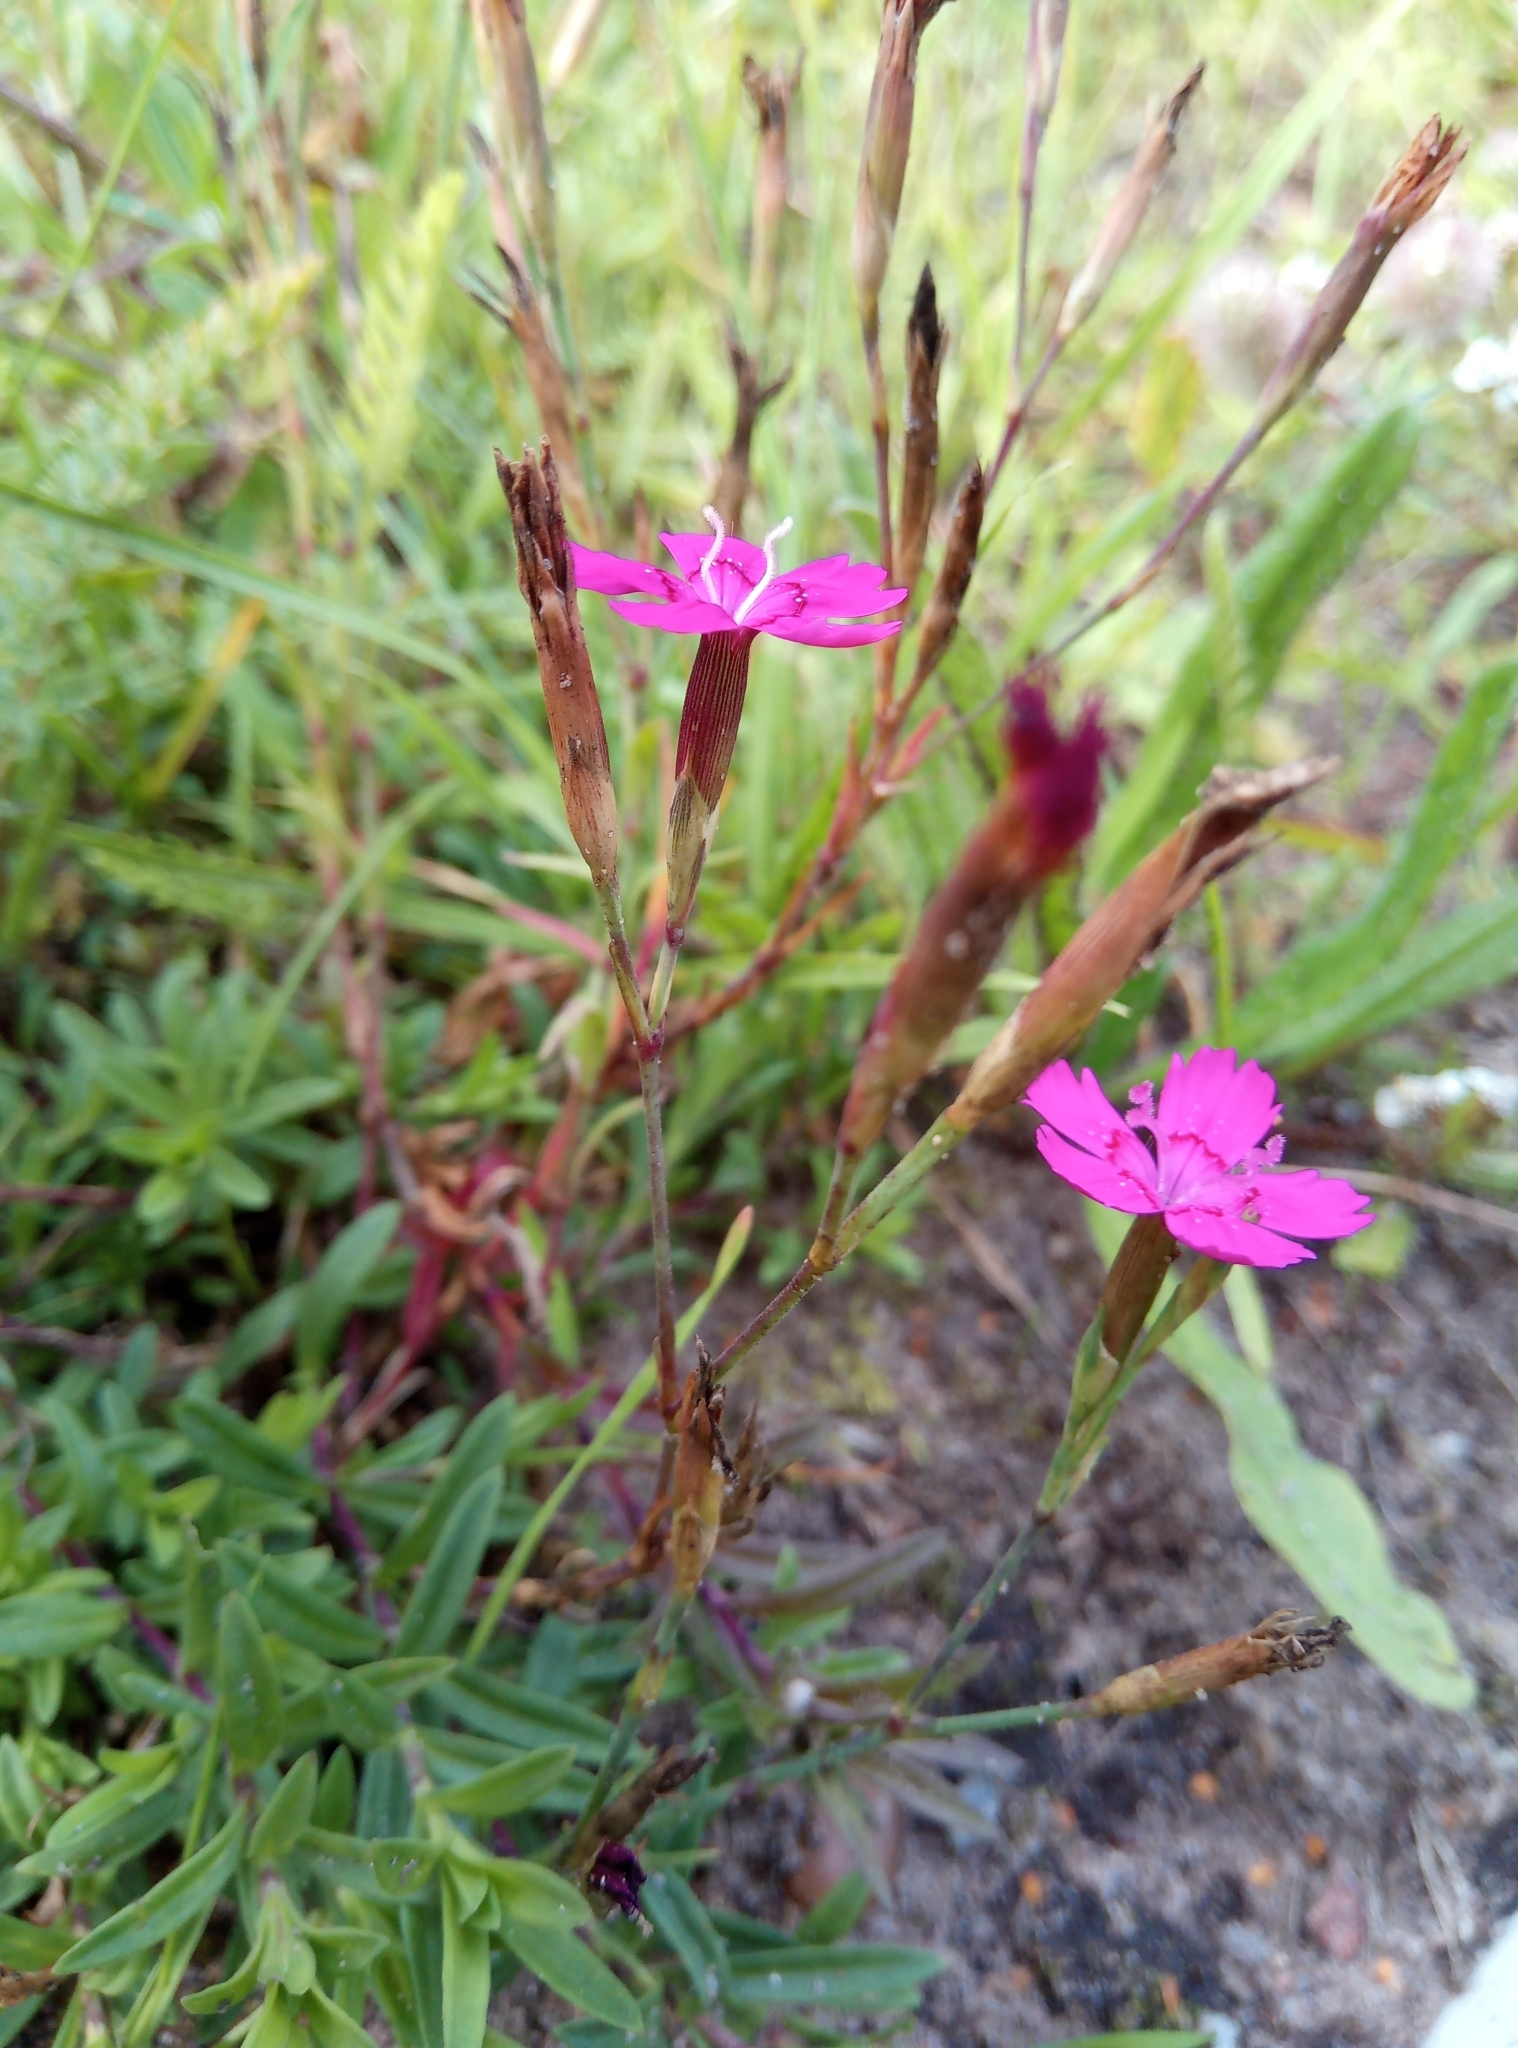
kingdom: Plantae
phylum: Tracheophyta
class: Magnoliopsida
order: Caryophyllales
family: Caryophyllaceae
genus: Dianthus
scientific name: Dianthus deltoides
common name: Maiden pink
